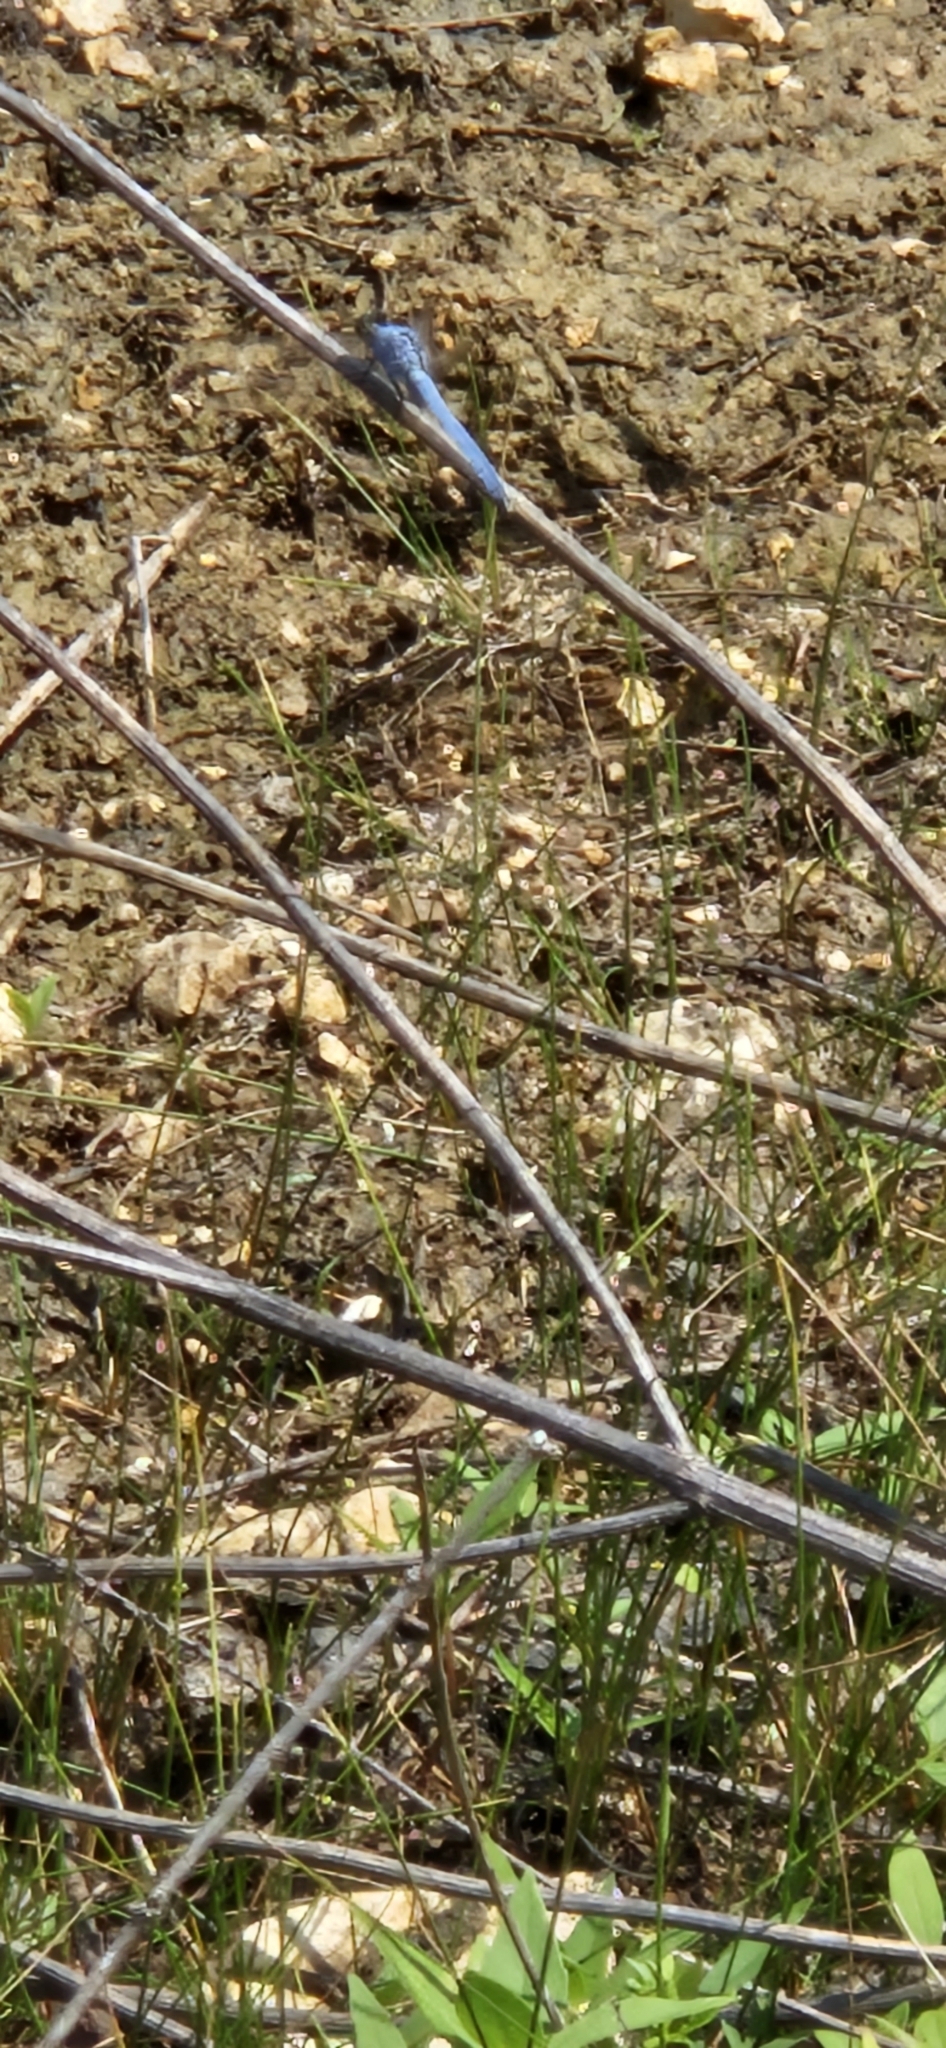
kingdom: Animalia
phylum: Arthropoda
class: Insecta
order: Odonata
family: Libellulidae
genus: Erythemis
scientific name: Erythemis simplicicollis
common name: Eastern pondhawk
